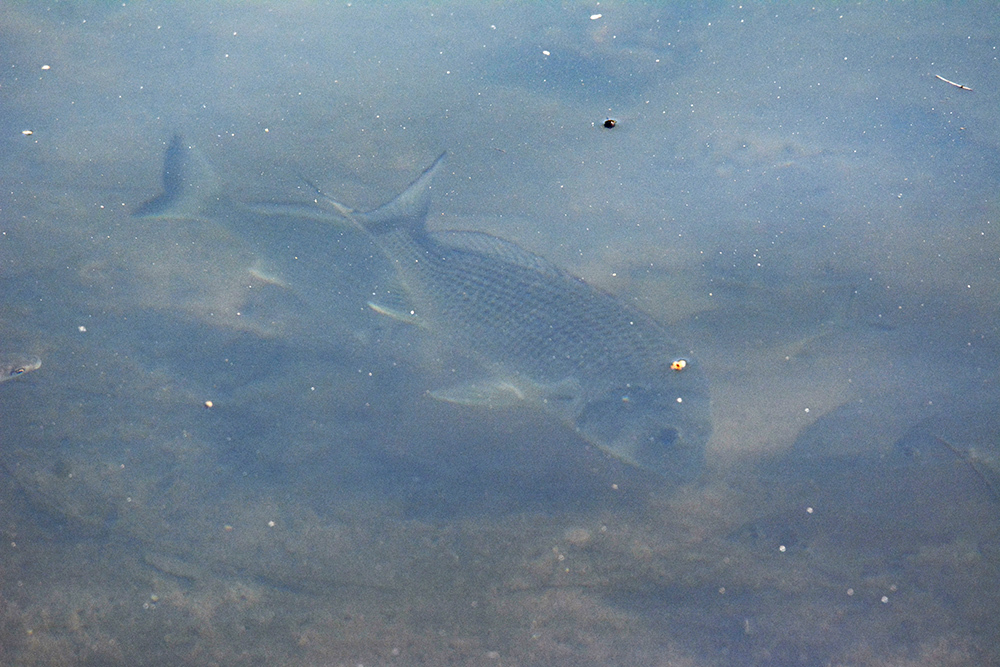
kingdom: Animalia
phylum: Chordata
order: Perciformes
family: Sparidae
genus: Acanthopagrus
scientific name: Acanthopagrus australis
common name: Surf bream
